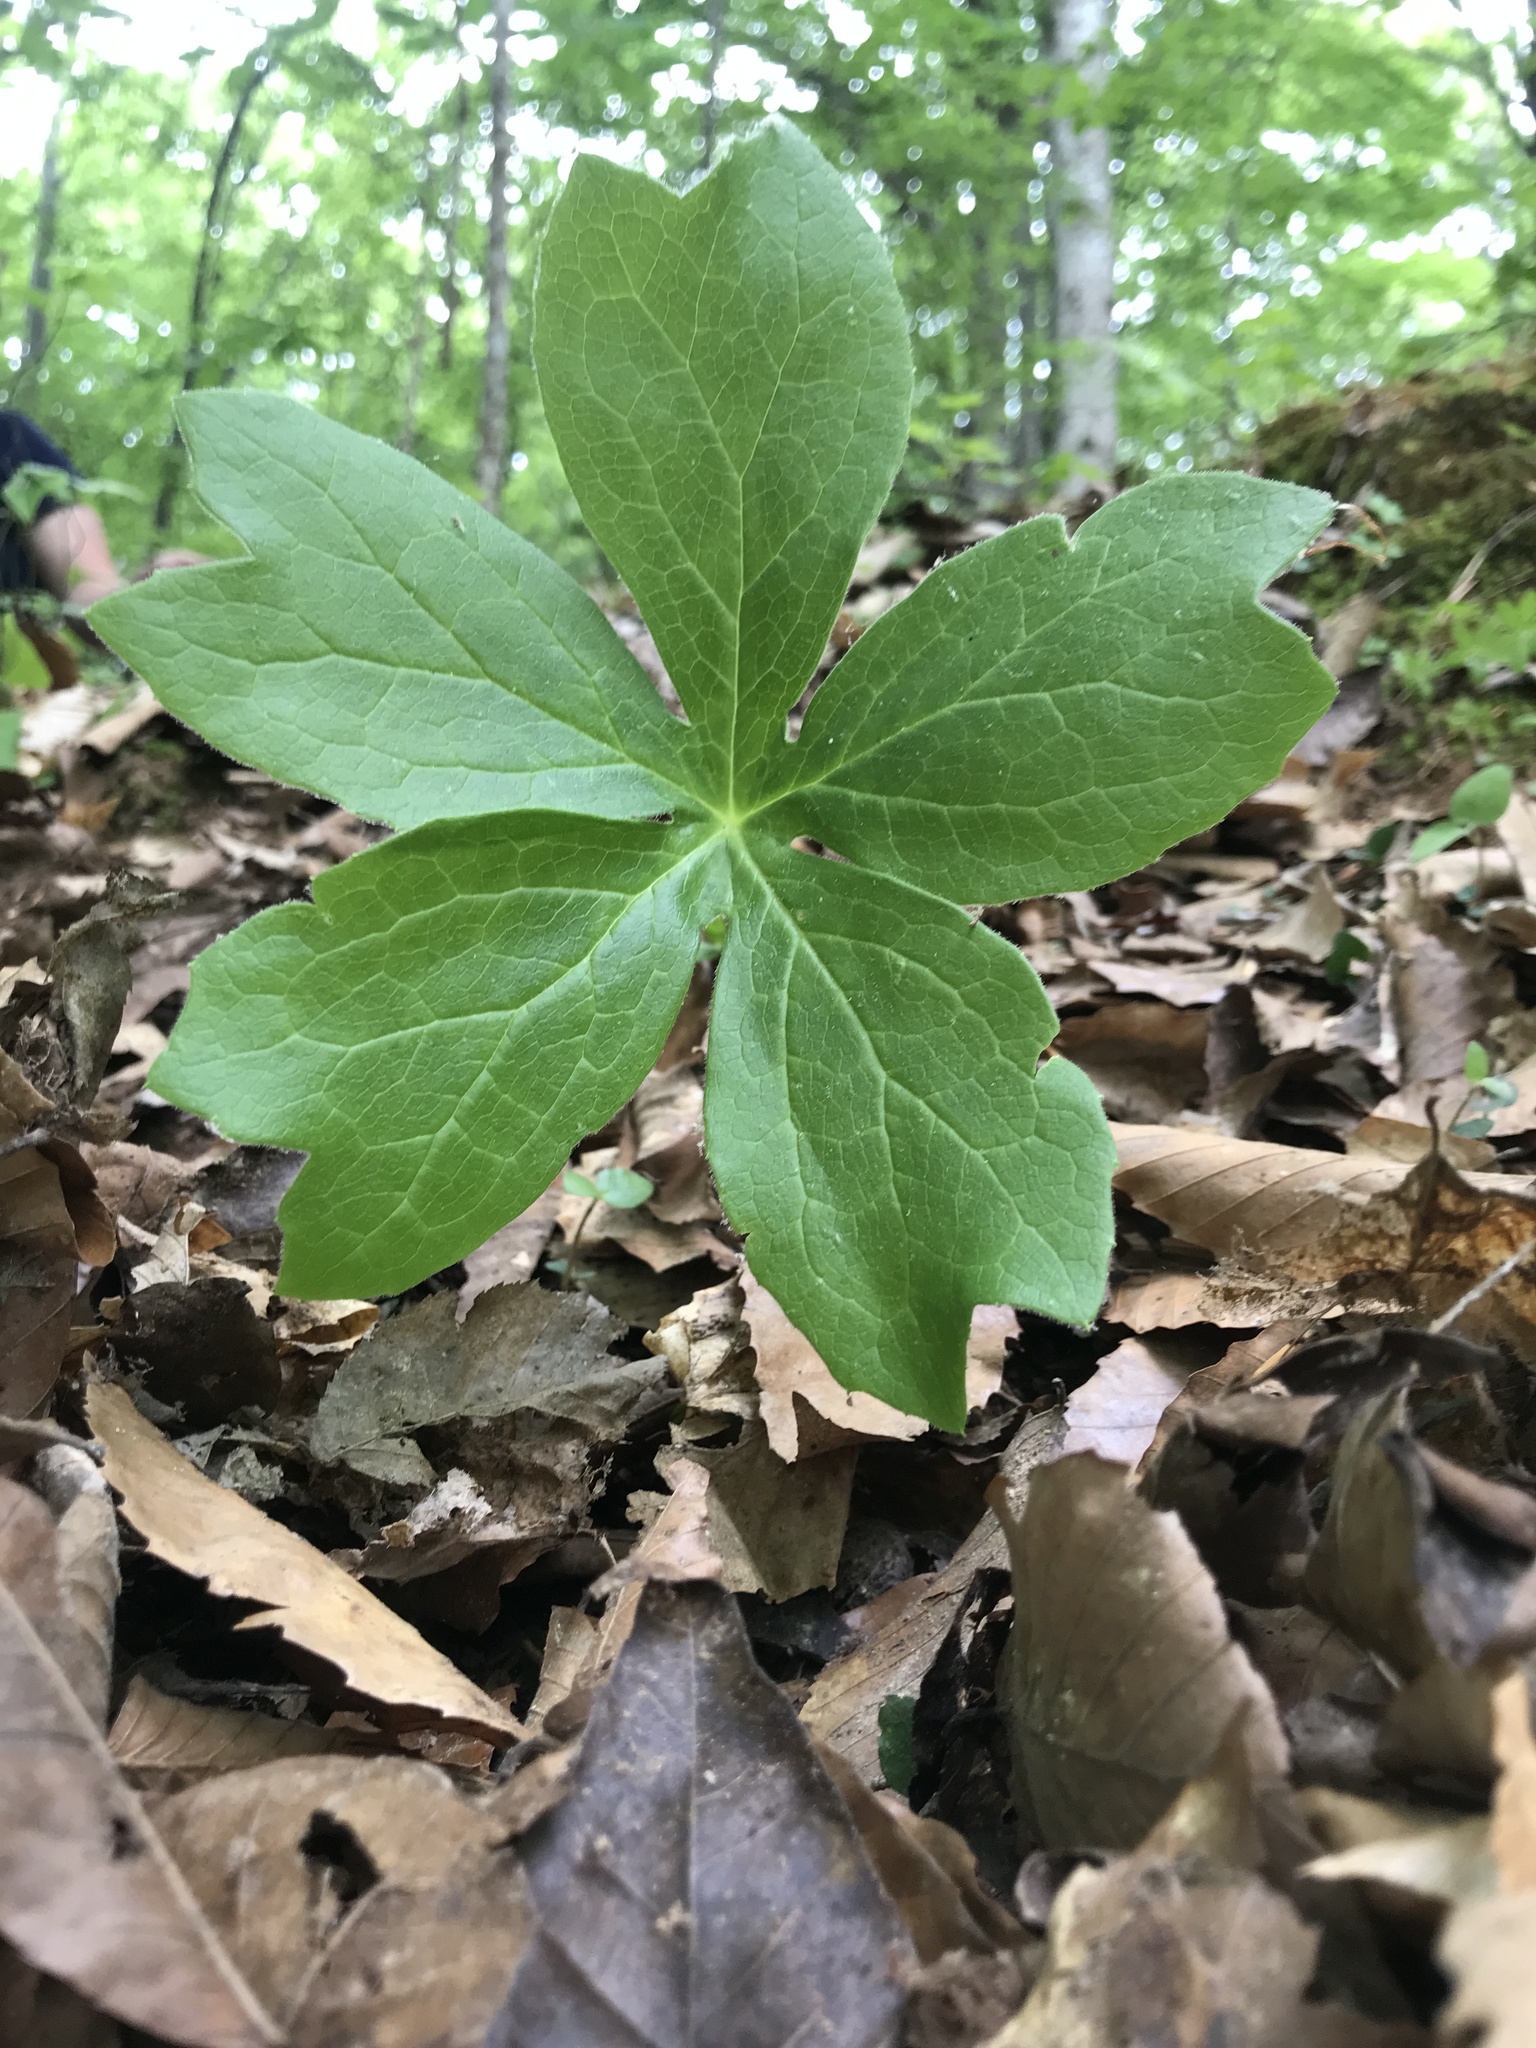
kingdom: Plantae
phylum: Tracheophyta
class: Magnoliopsida
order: Ranunculales
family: Berberidaceae
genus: Podophyllum
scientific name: Podophyllum peltatum
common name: Wild mandrake
